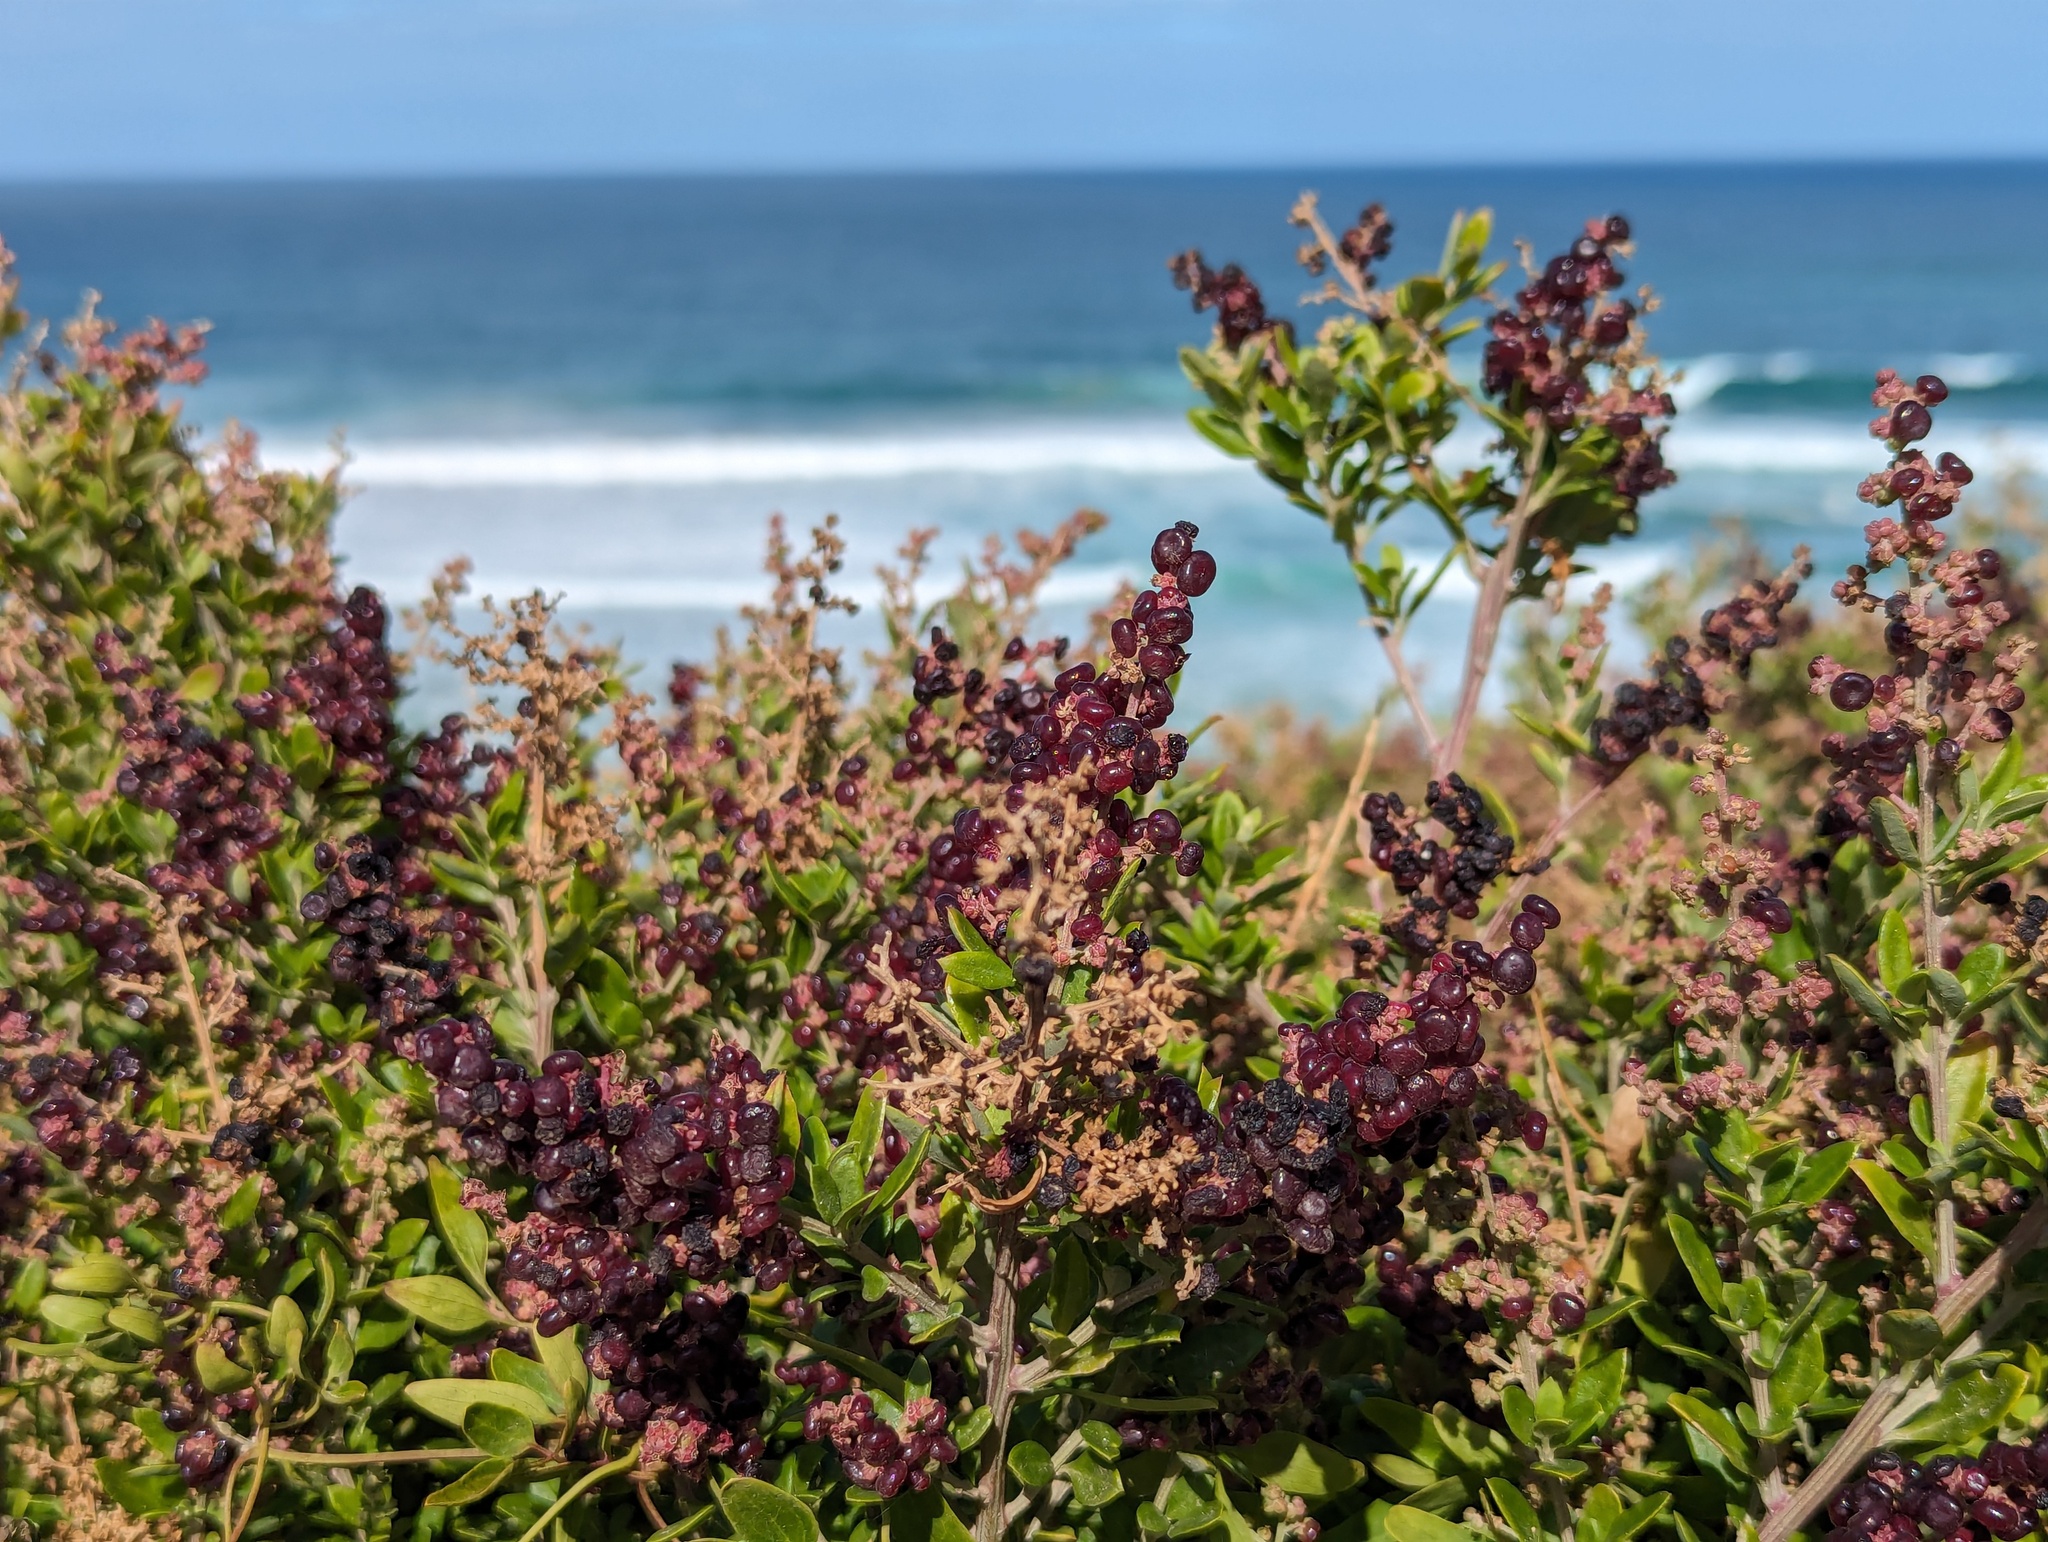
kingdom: Plantae
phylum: Tracheophyta
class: Magnoliopsida
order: Caryophyllales
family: Amaranthaceae
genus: Chenopodium
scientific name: Chenopodium candolleanum
